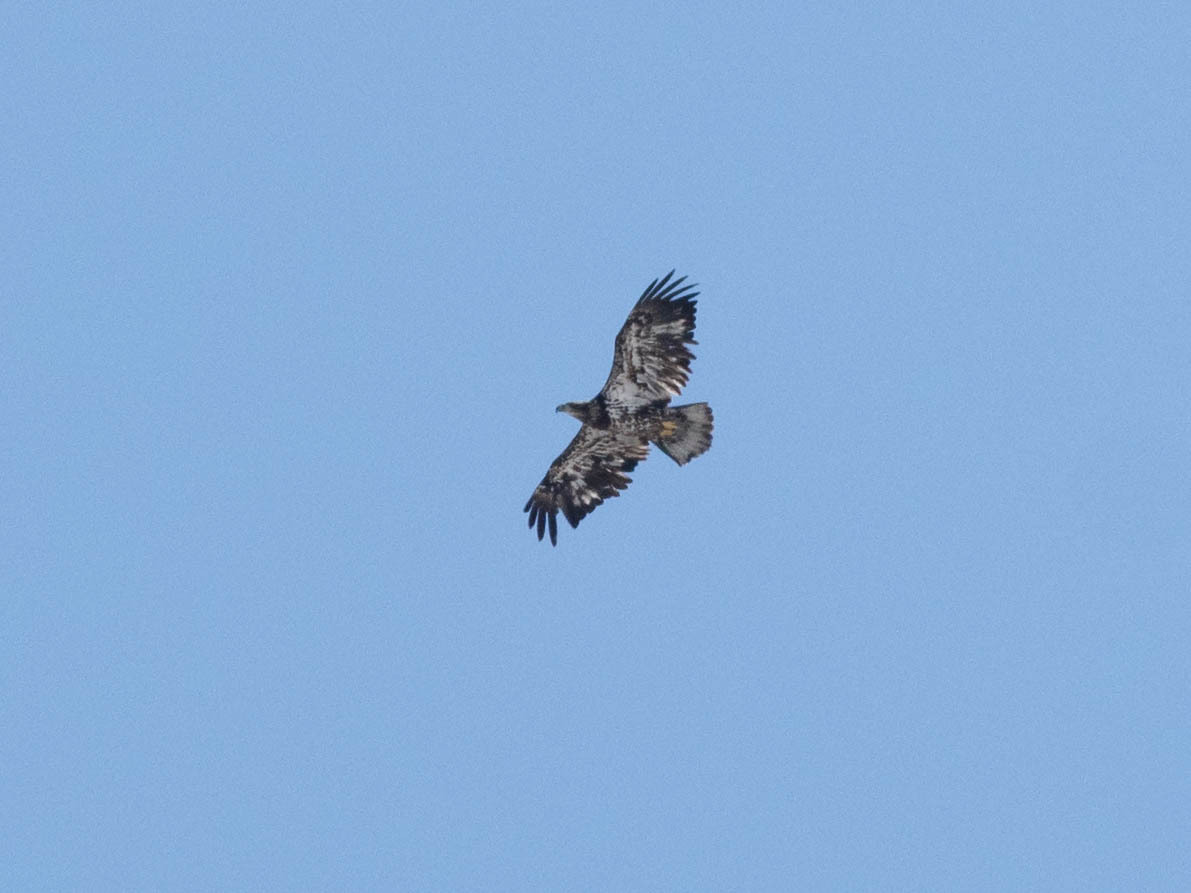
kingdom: Animalia
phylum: Chordata
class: Aves
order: Accipitriformes
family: Accipitridae
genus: Haliaeetus
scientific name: Haliaeetus leucocephalus
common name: Bald eagle
